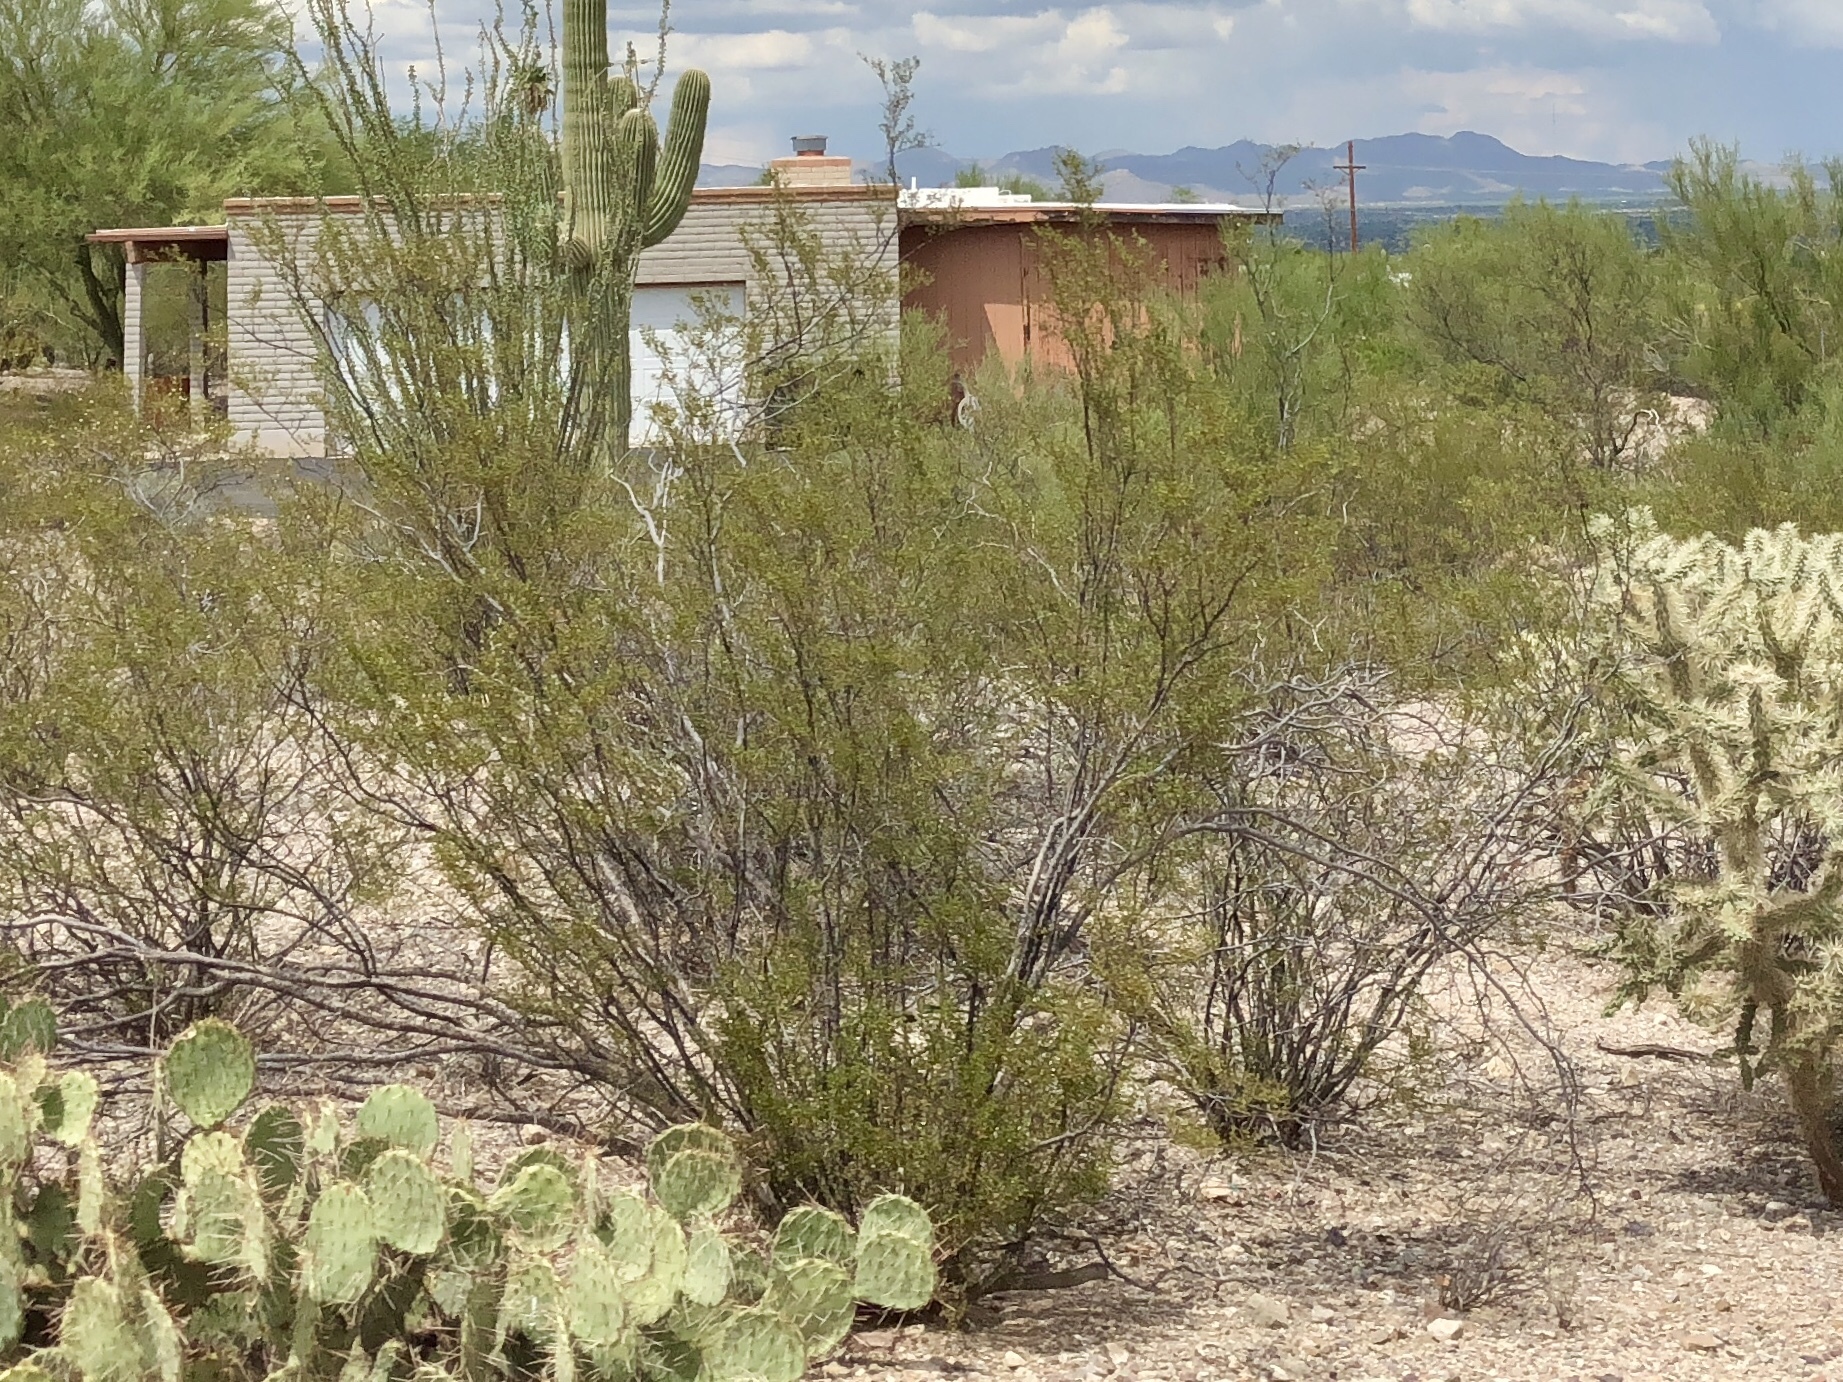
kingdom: Plantae
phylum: Tracheophyta
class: Magnoliopsida
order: Zygophyllales
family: Zygophyllaceae
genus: Larrea
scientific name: Larrea tridentata
